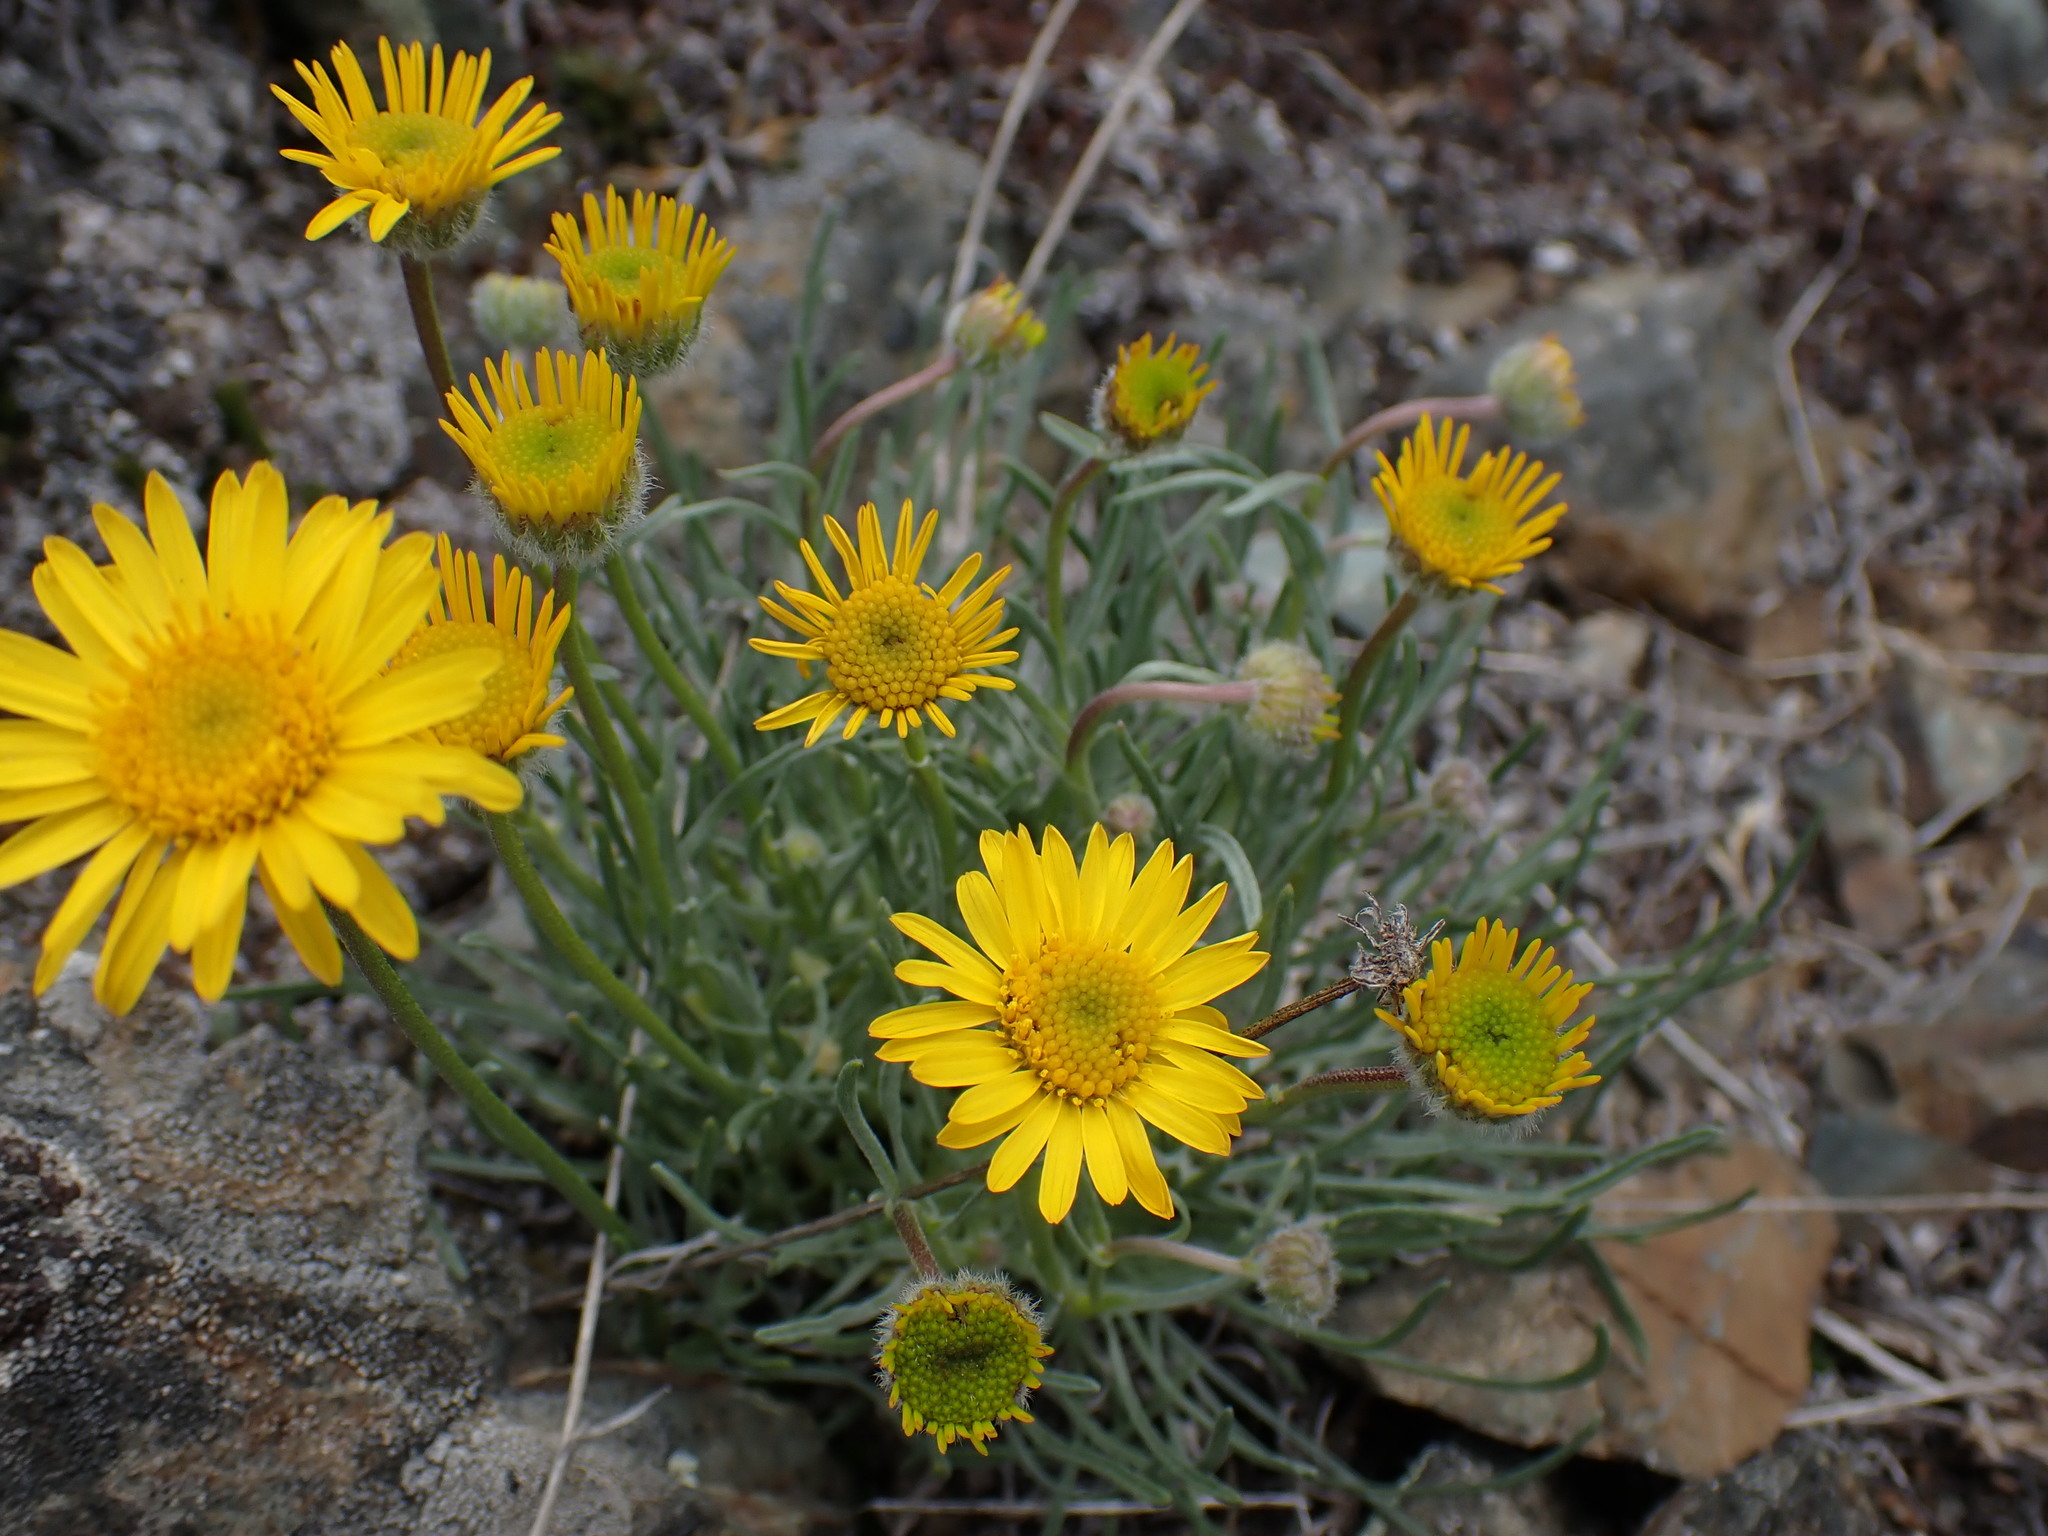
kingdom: Plantae
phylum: Tracheophyta
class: Magnoliopsida
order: Asterales
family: Asteraceae
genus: Erigeron
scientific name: Erigeron linearis
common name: Desert yellow fleabane
